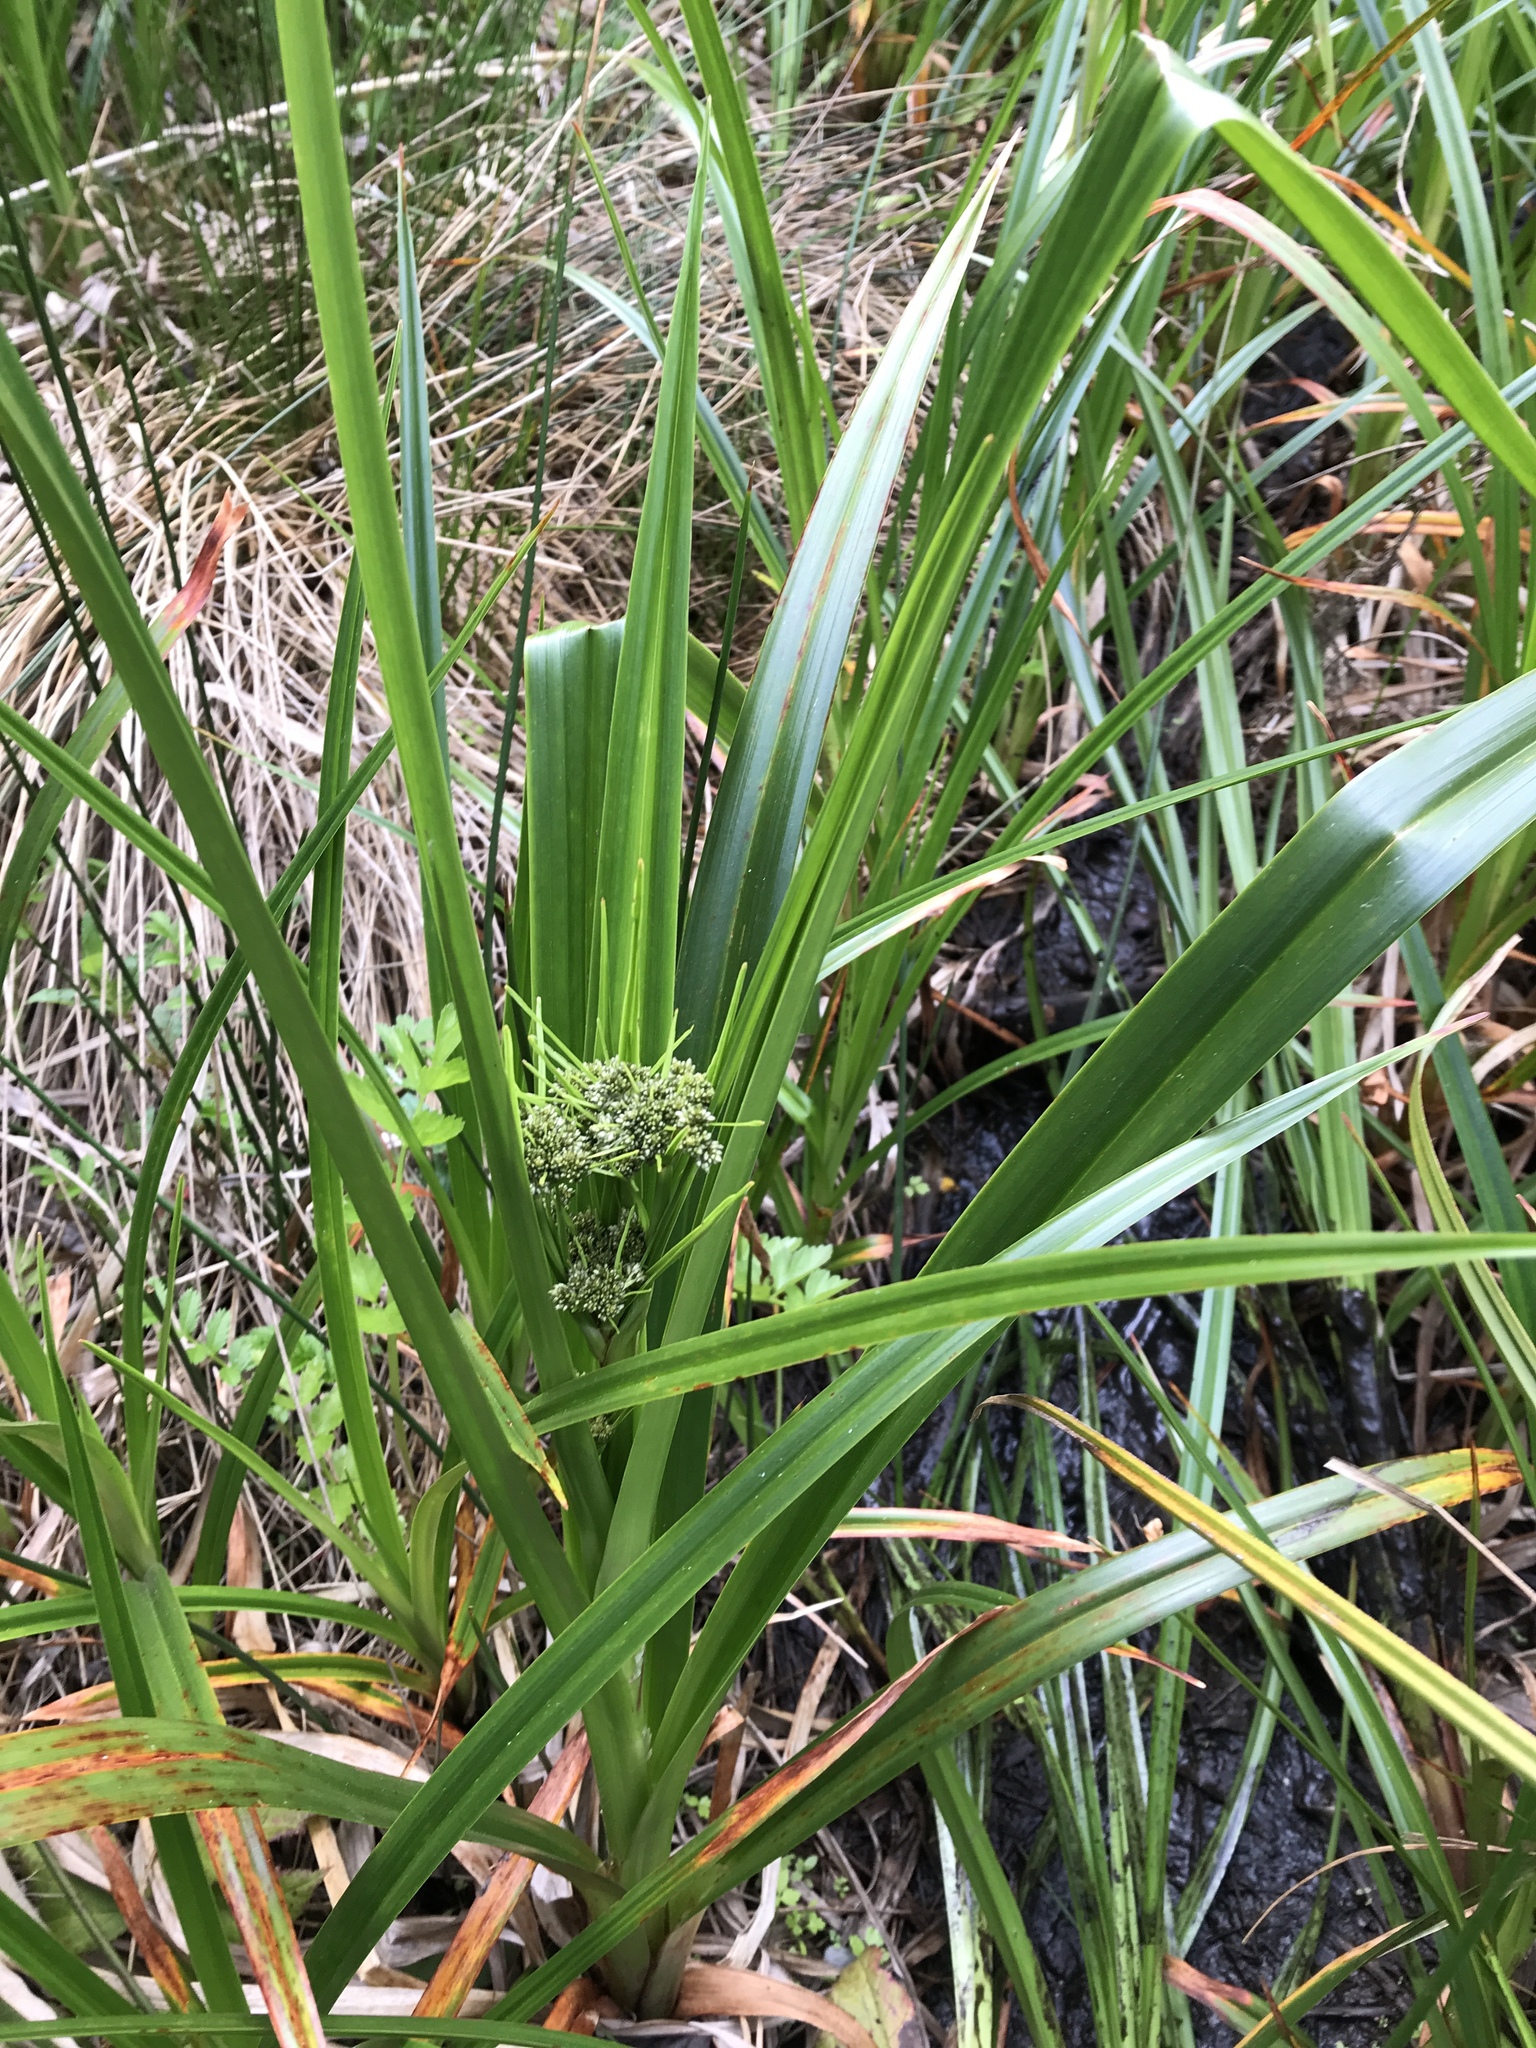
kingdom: Plantae
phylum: Tracheophyta
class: Liliopsida
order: Poales
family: Cyperaceae
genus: Scirpus
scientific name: Scirpus microcarpus
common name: Panicled bulrush
